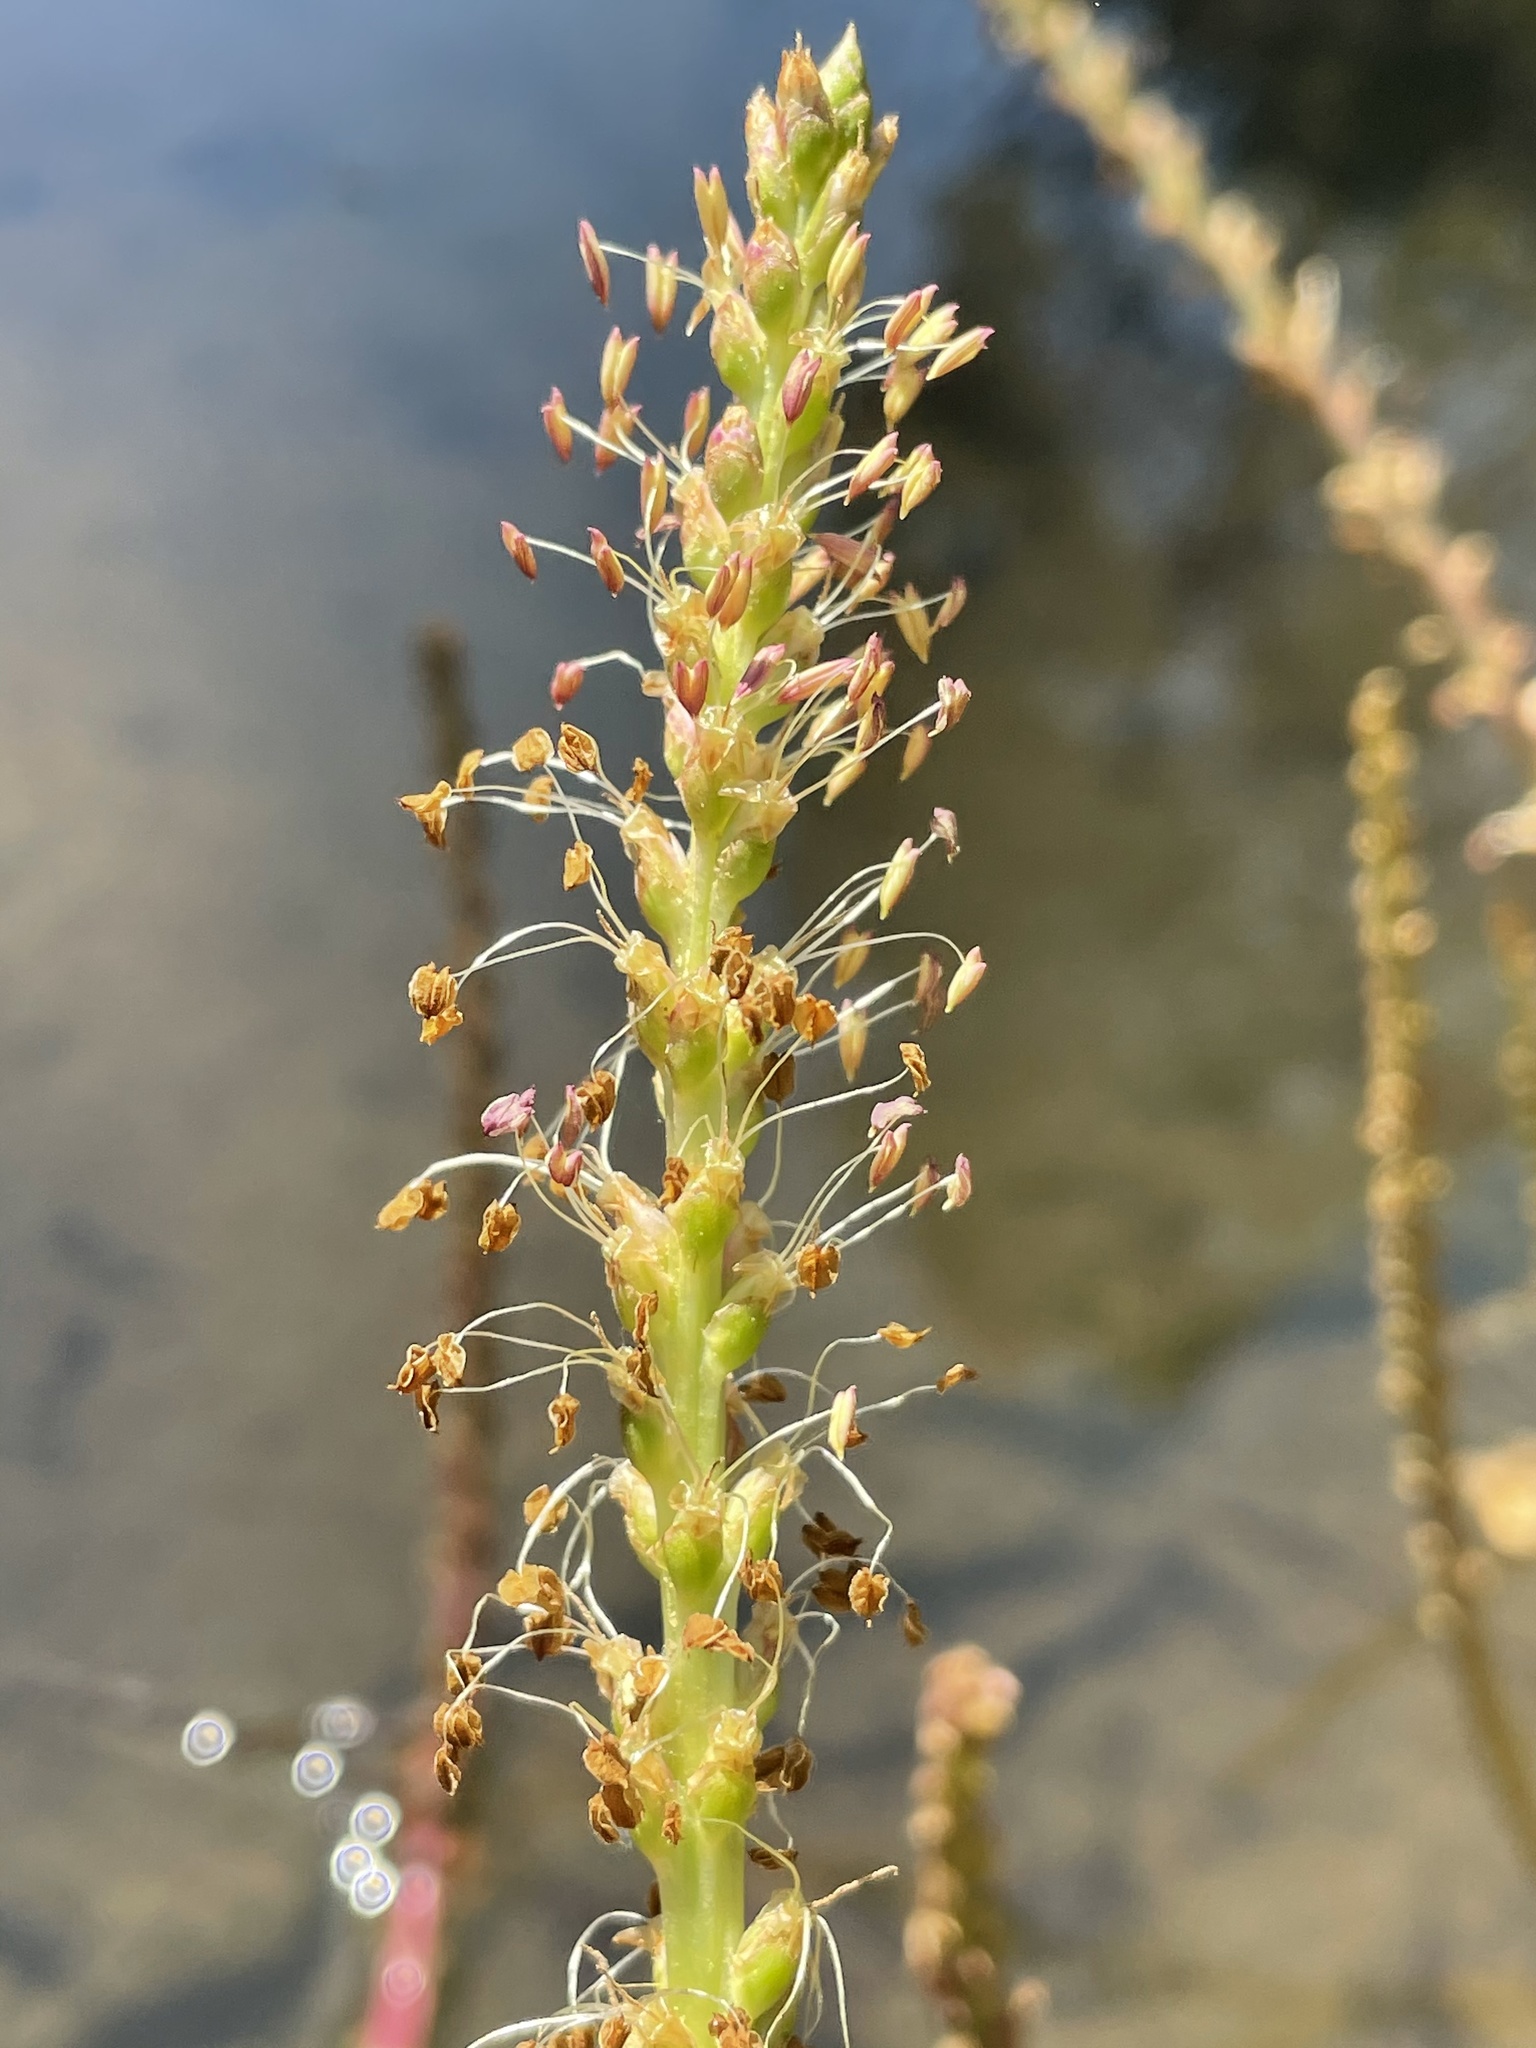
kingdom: Plantae
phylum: Tracheophyta
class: Magnoliopsida
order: Lamiales
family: Plantaginaceae
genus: Plantago
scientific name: Plantago cordata
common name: Kingroot
